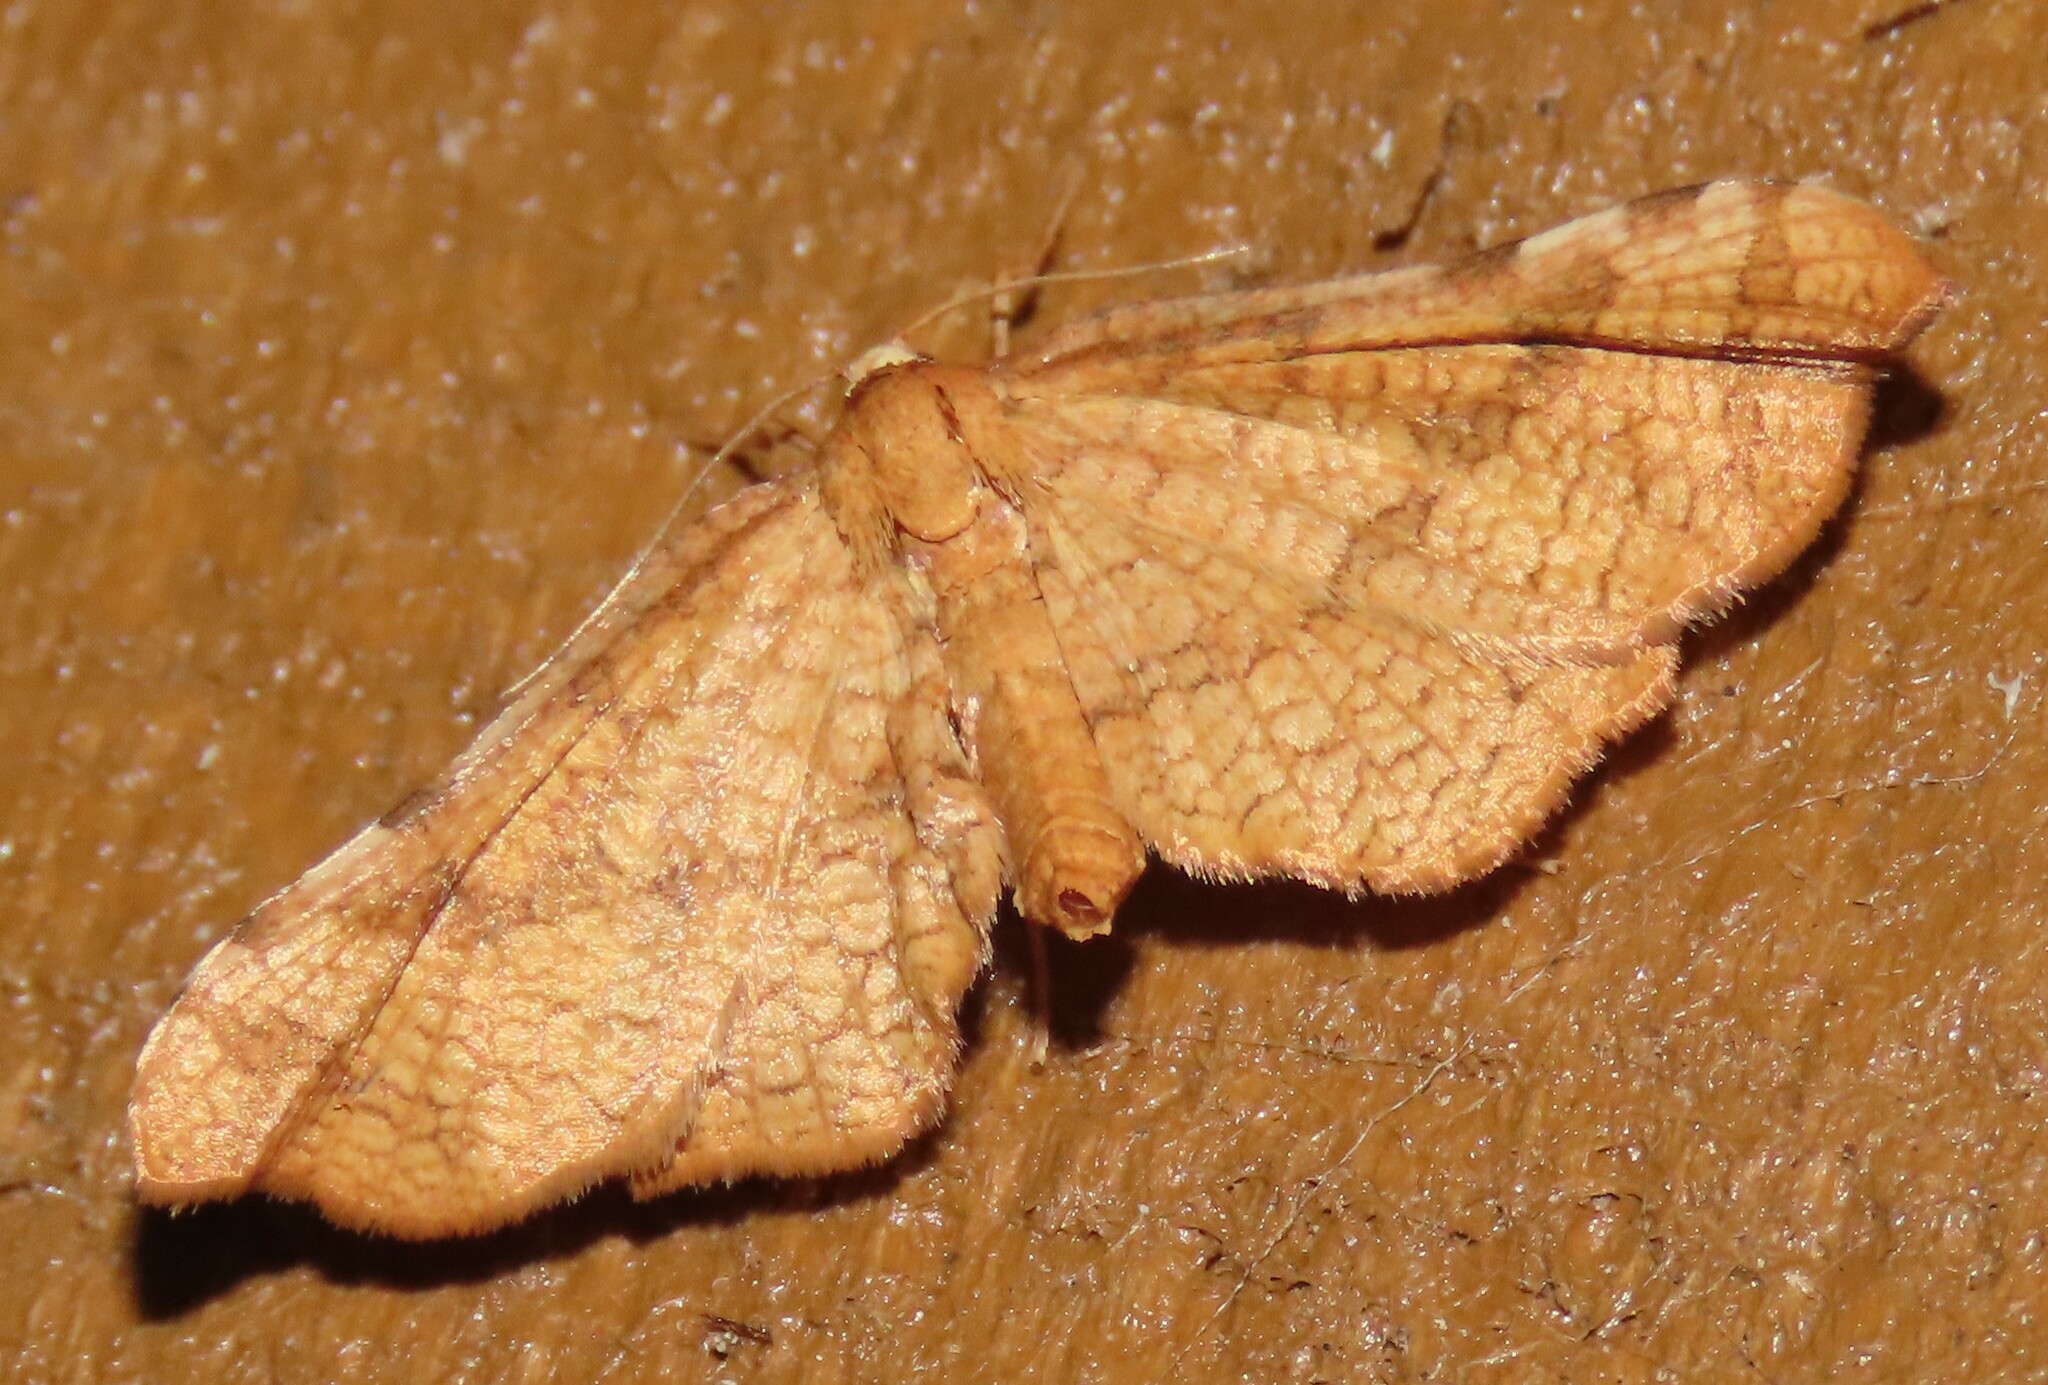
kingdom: Animalia
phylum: Arthropoda
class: Insecta
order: Lepidoptera
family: Thyrididae
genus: Morova
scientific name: Morova subfasciata
